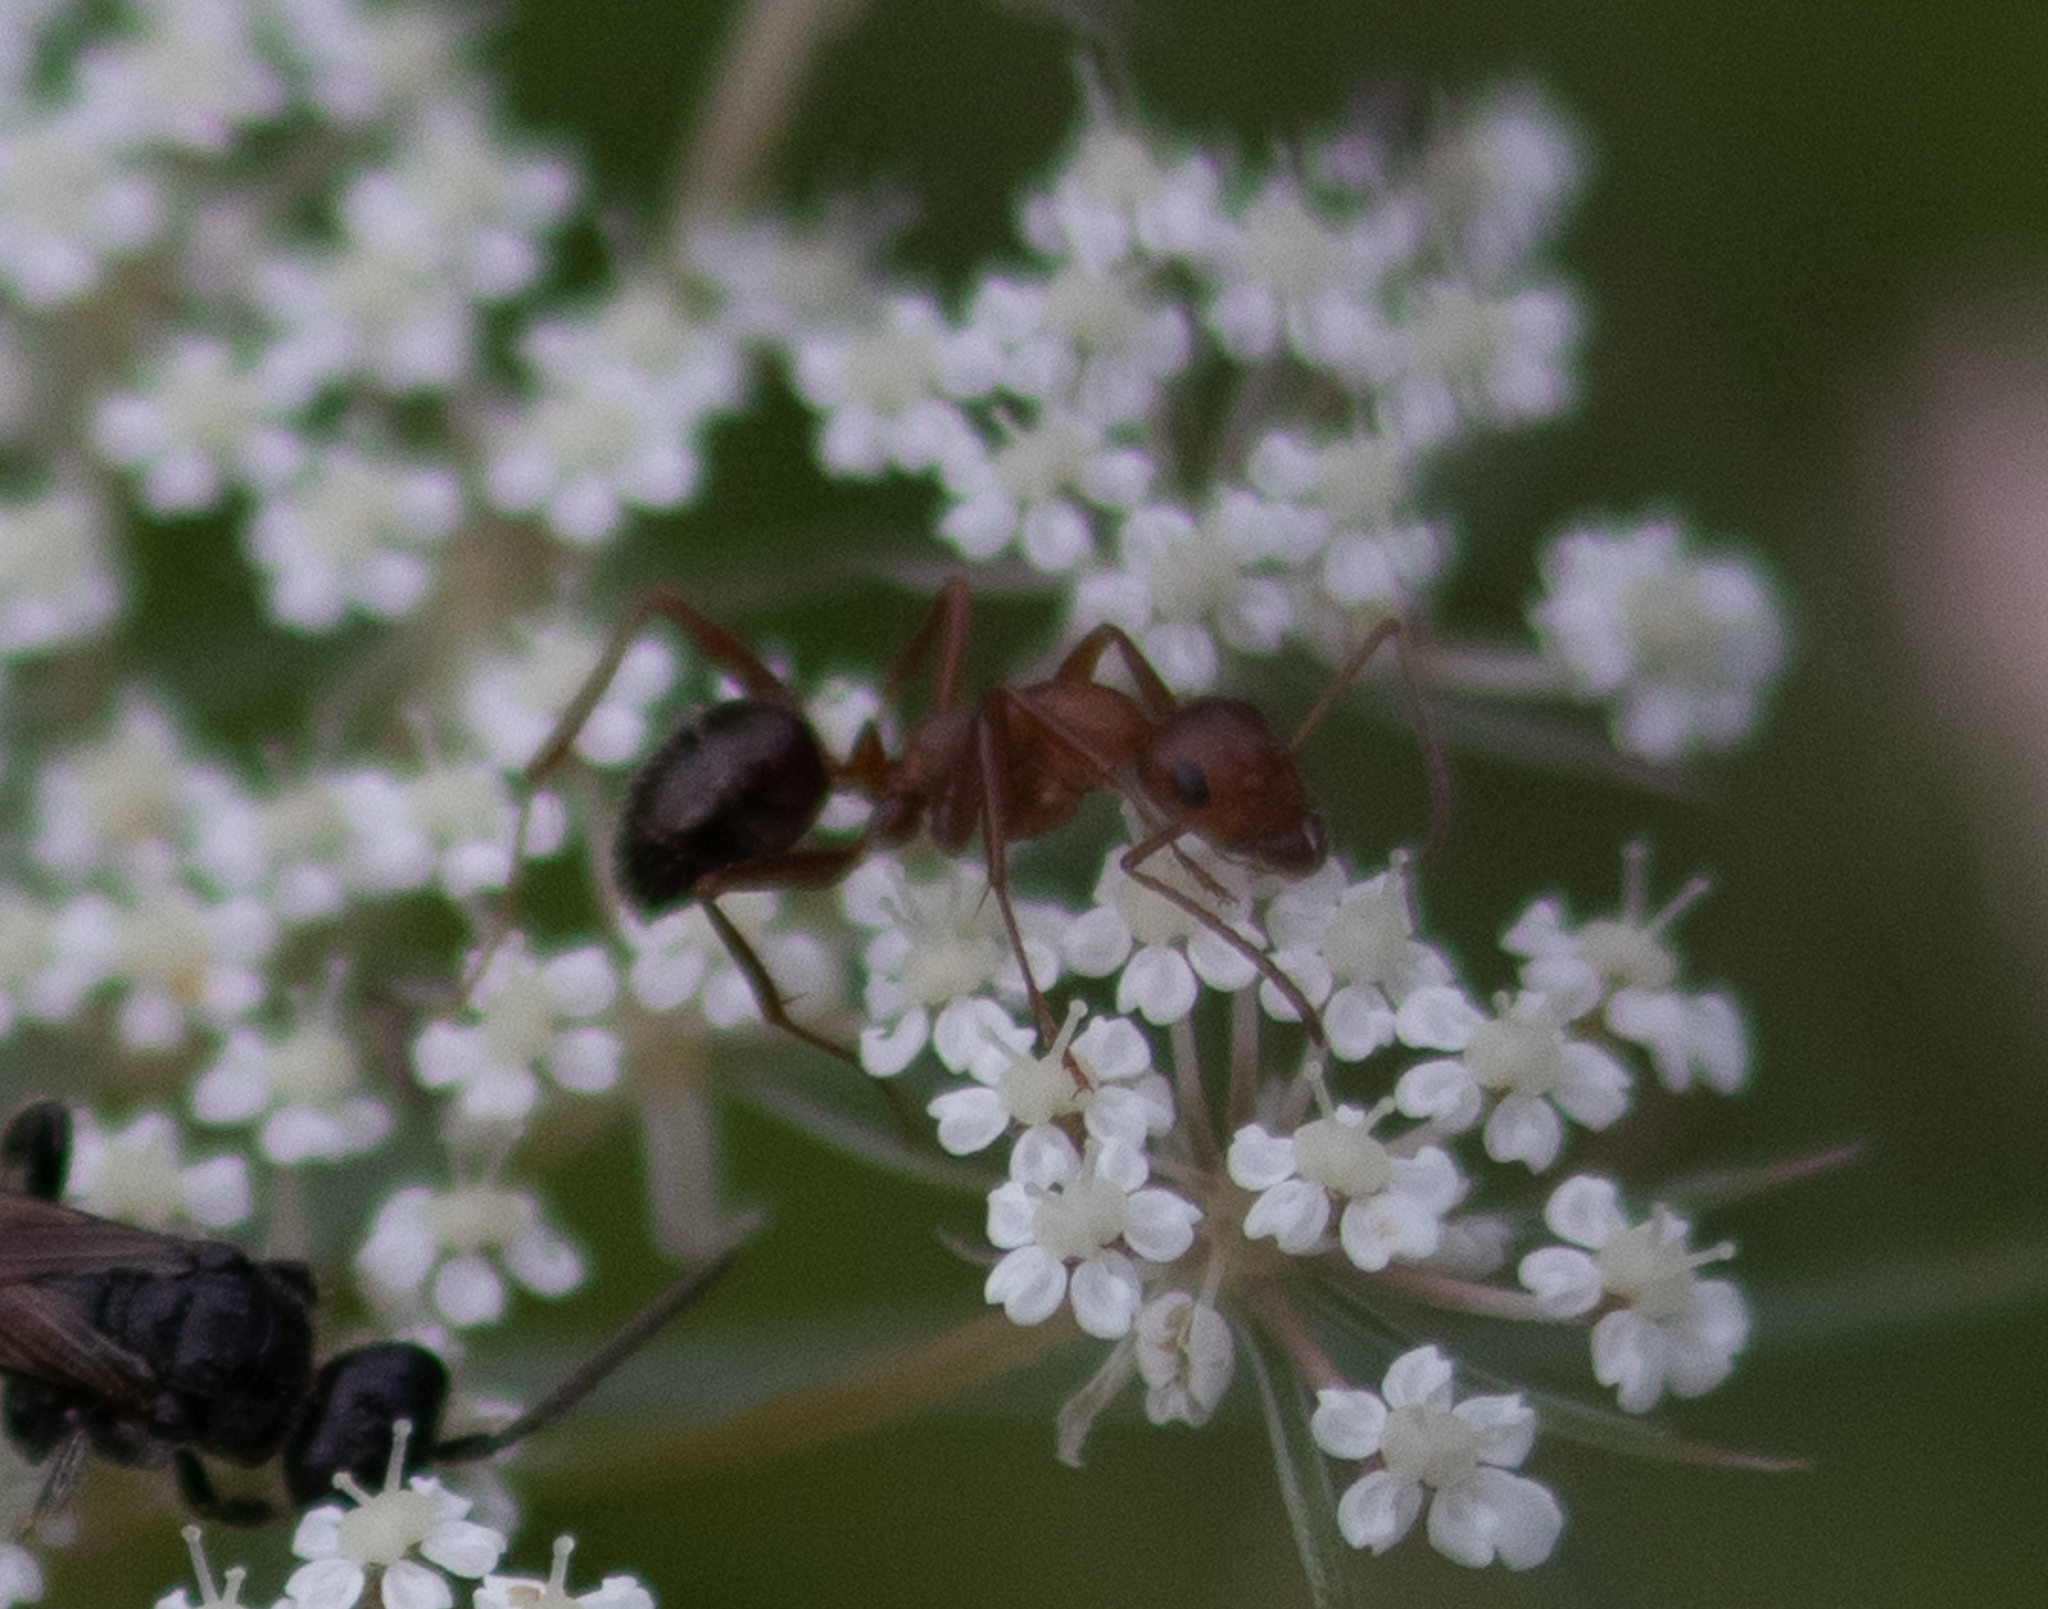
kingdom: Animalia
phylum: Arthropoda
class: Insecta
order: Hymenoptera
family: Formicidae
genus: Formica
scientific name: Formica
